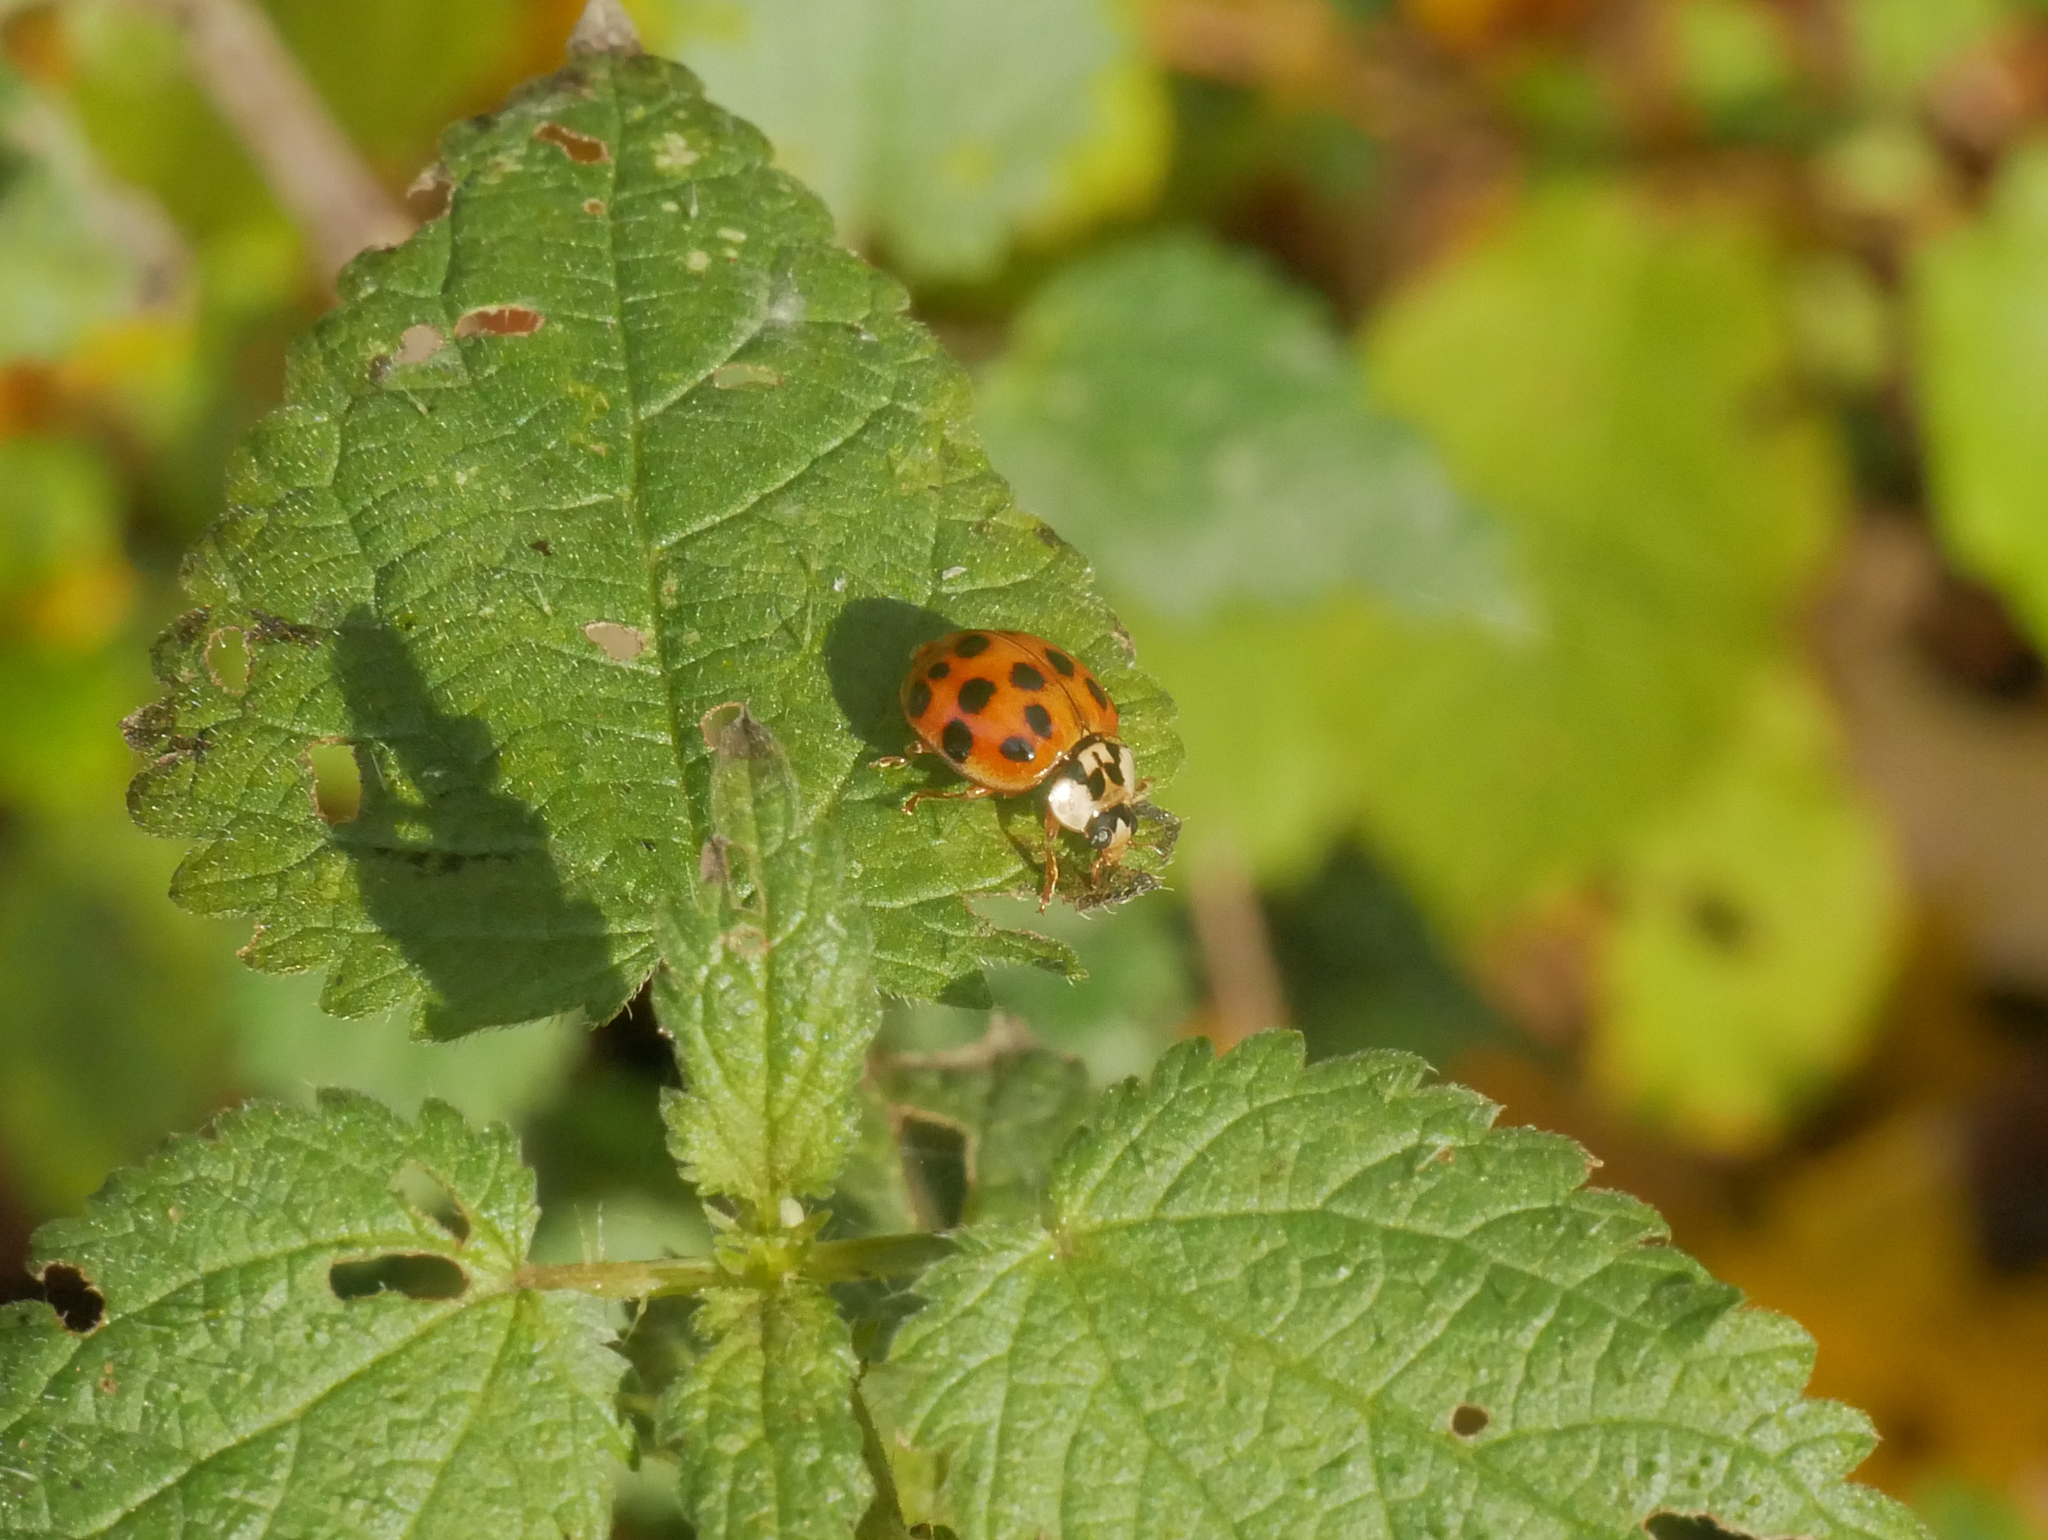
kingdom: Animalia
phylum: Arthropoda
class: Insecta
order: Coleoptera
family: Coccinellidae
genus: Harmonia
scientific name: Harmonia axyridis
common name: Harlequin ladybird
